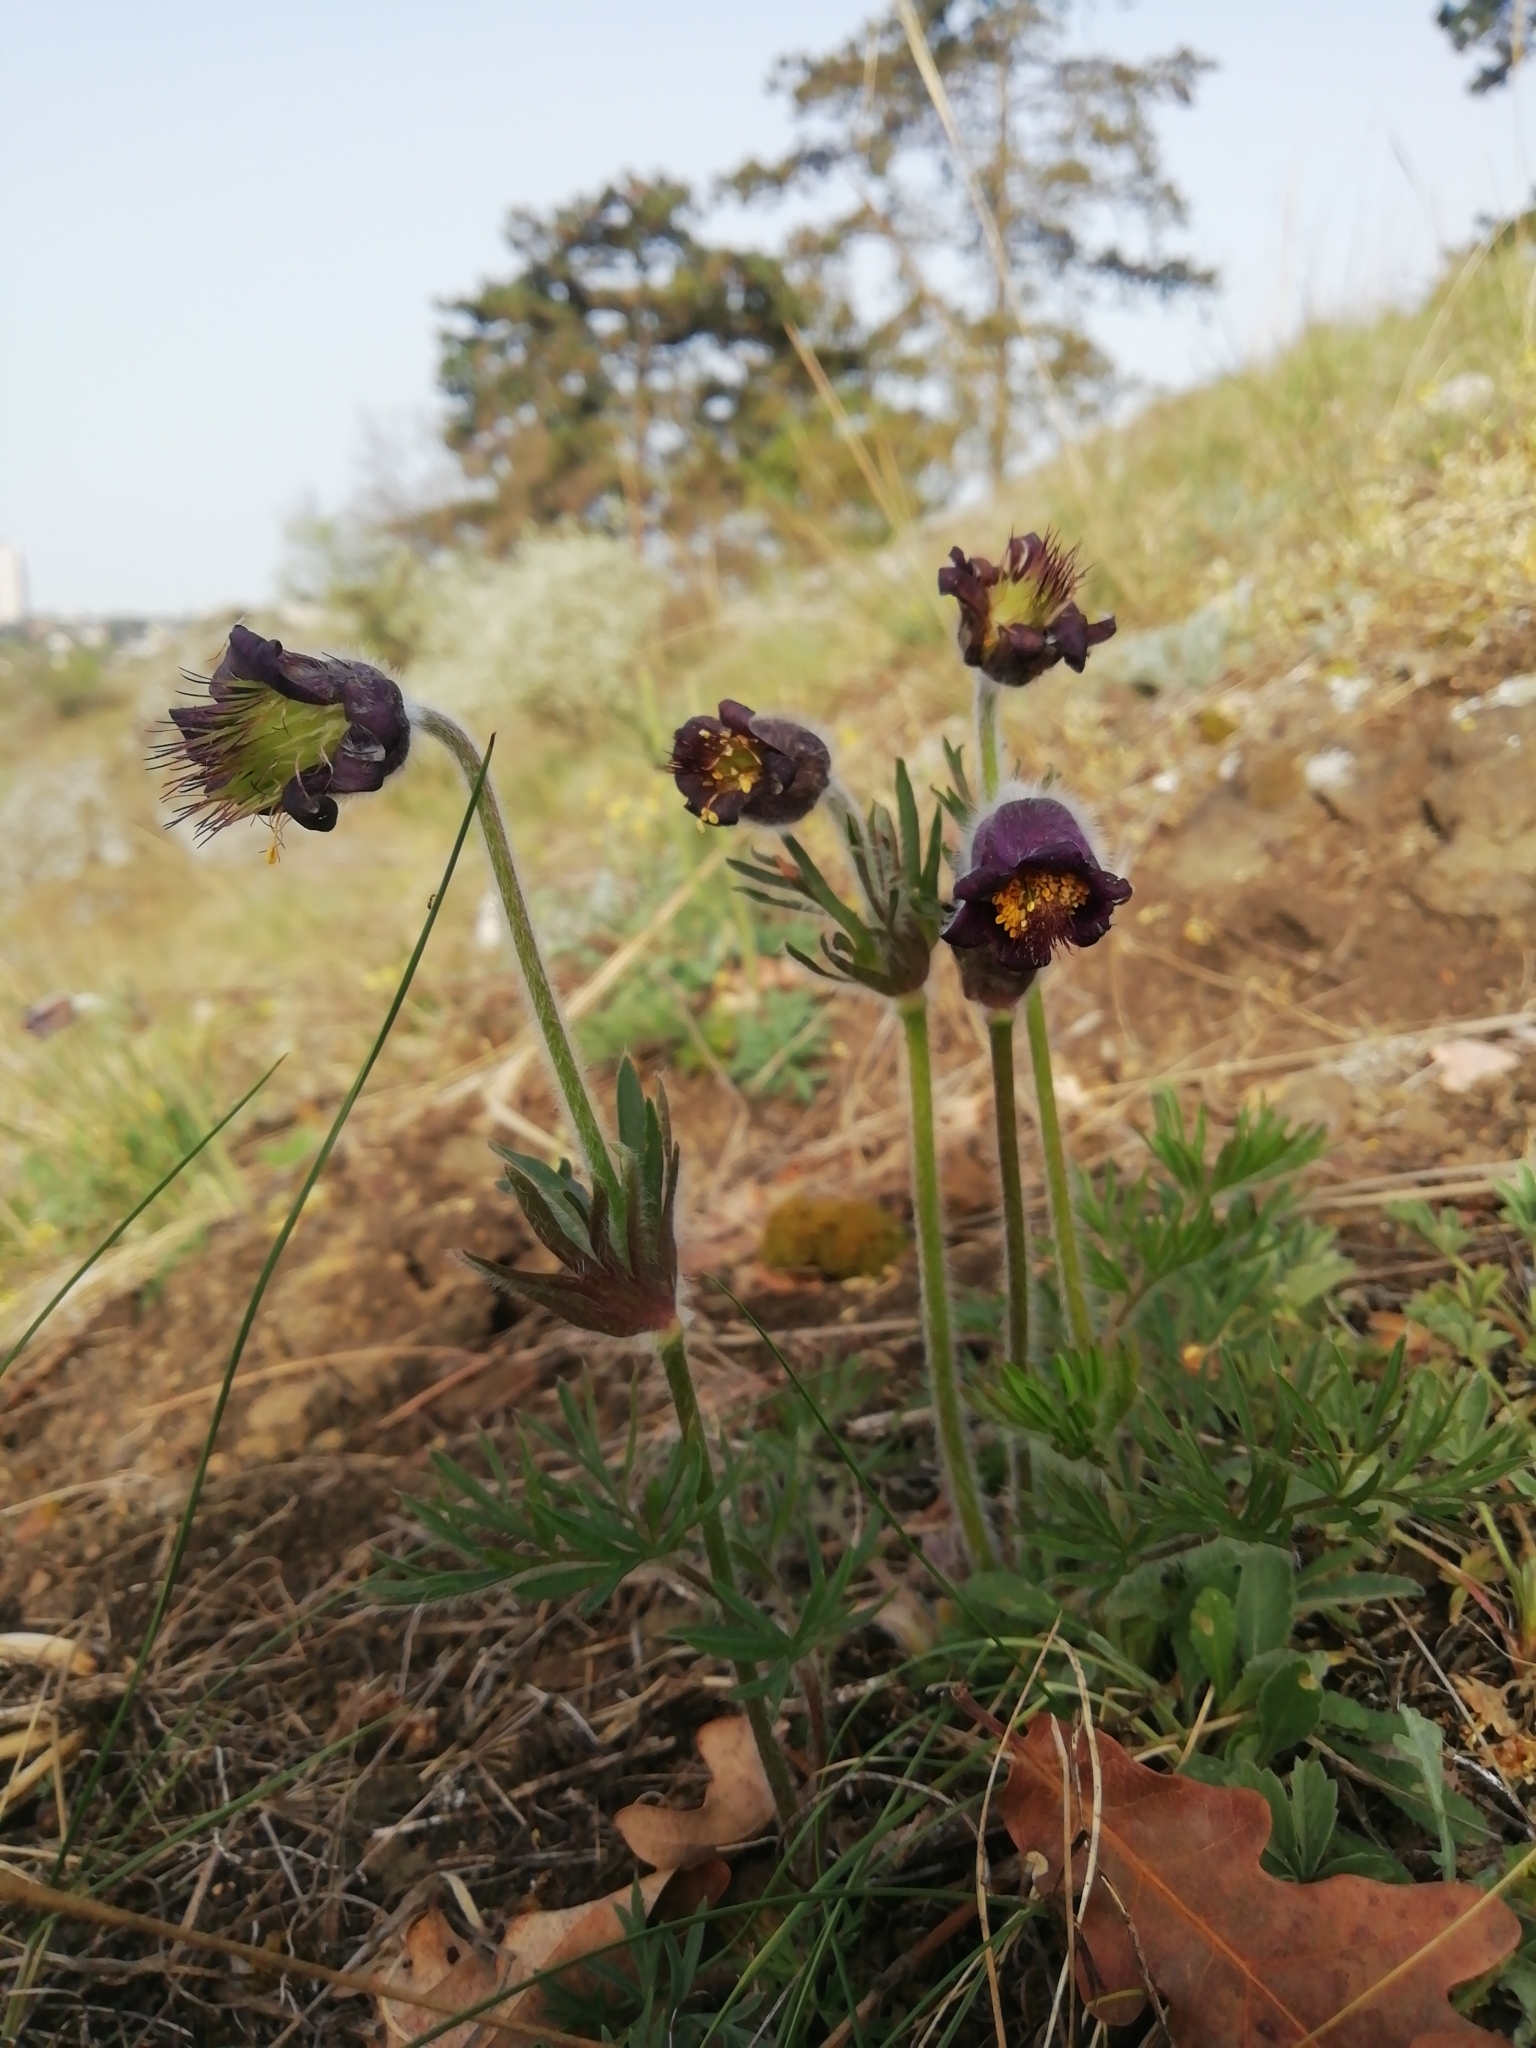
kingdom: Plantae
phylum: Tracheophyta
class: Magnoliopsida
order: Ranunculales
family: Ranunculaceae
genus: Pulsatilla
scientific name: Pulsatilla pratensis
